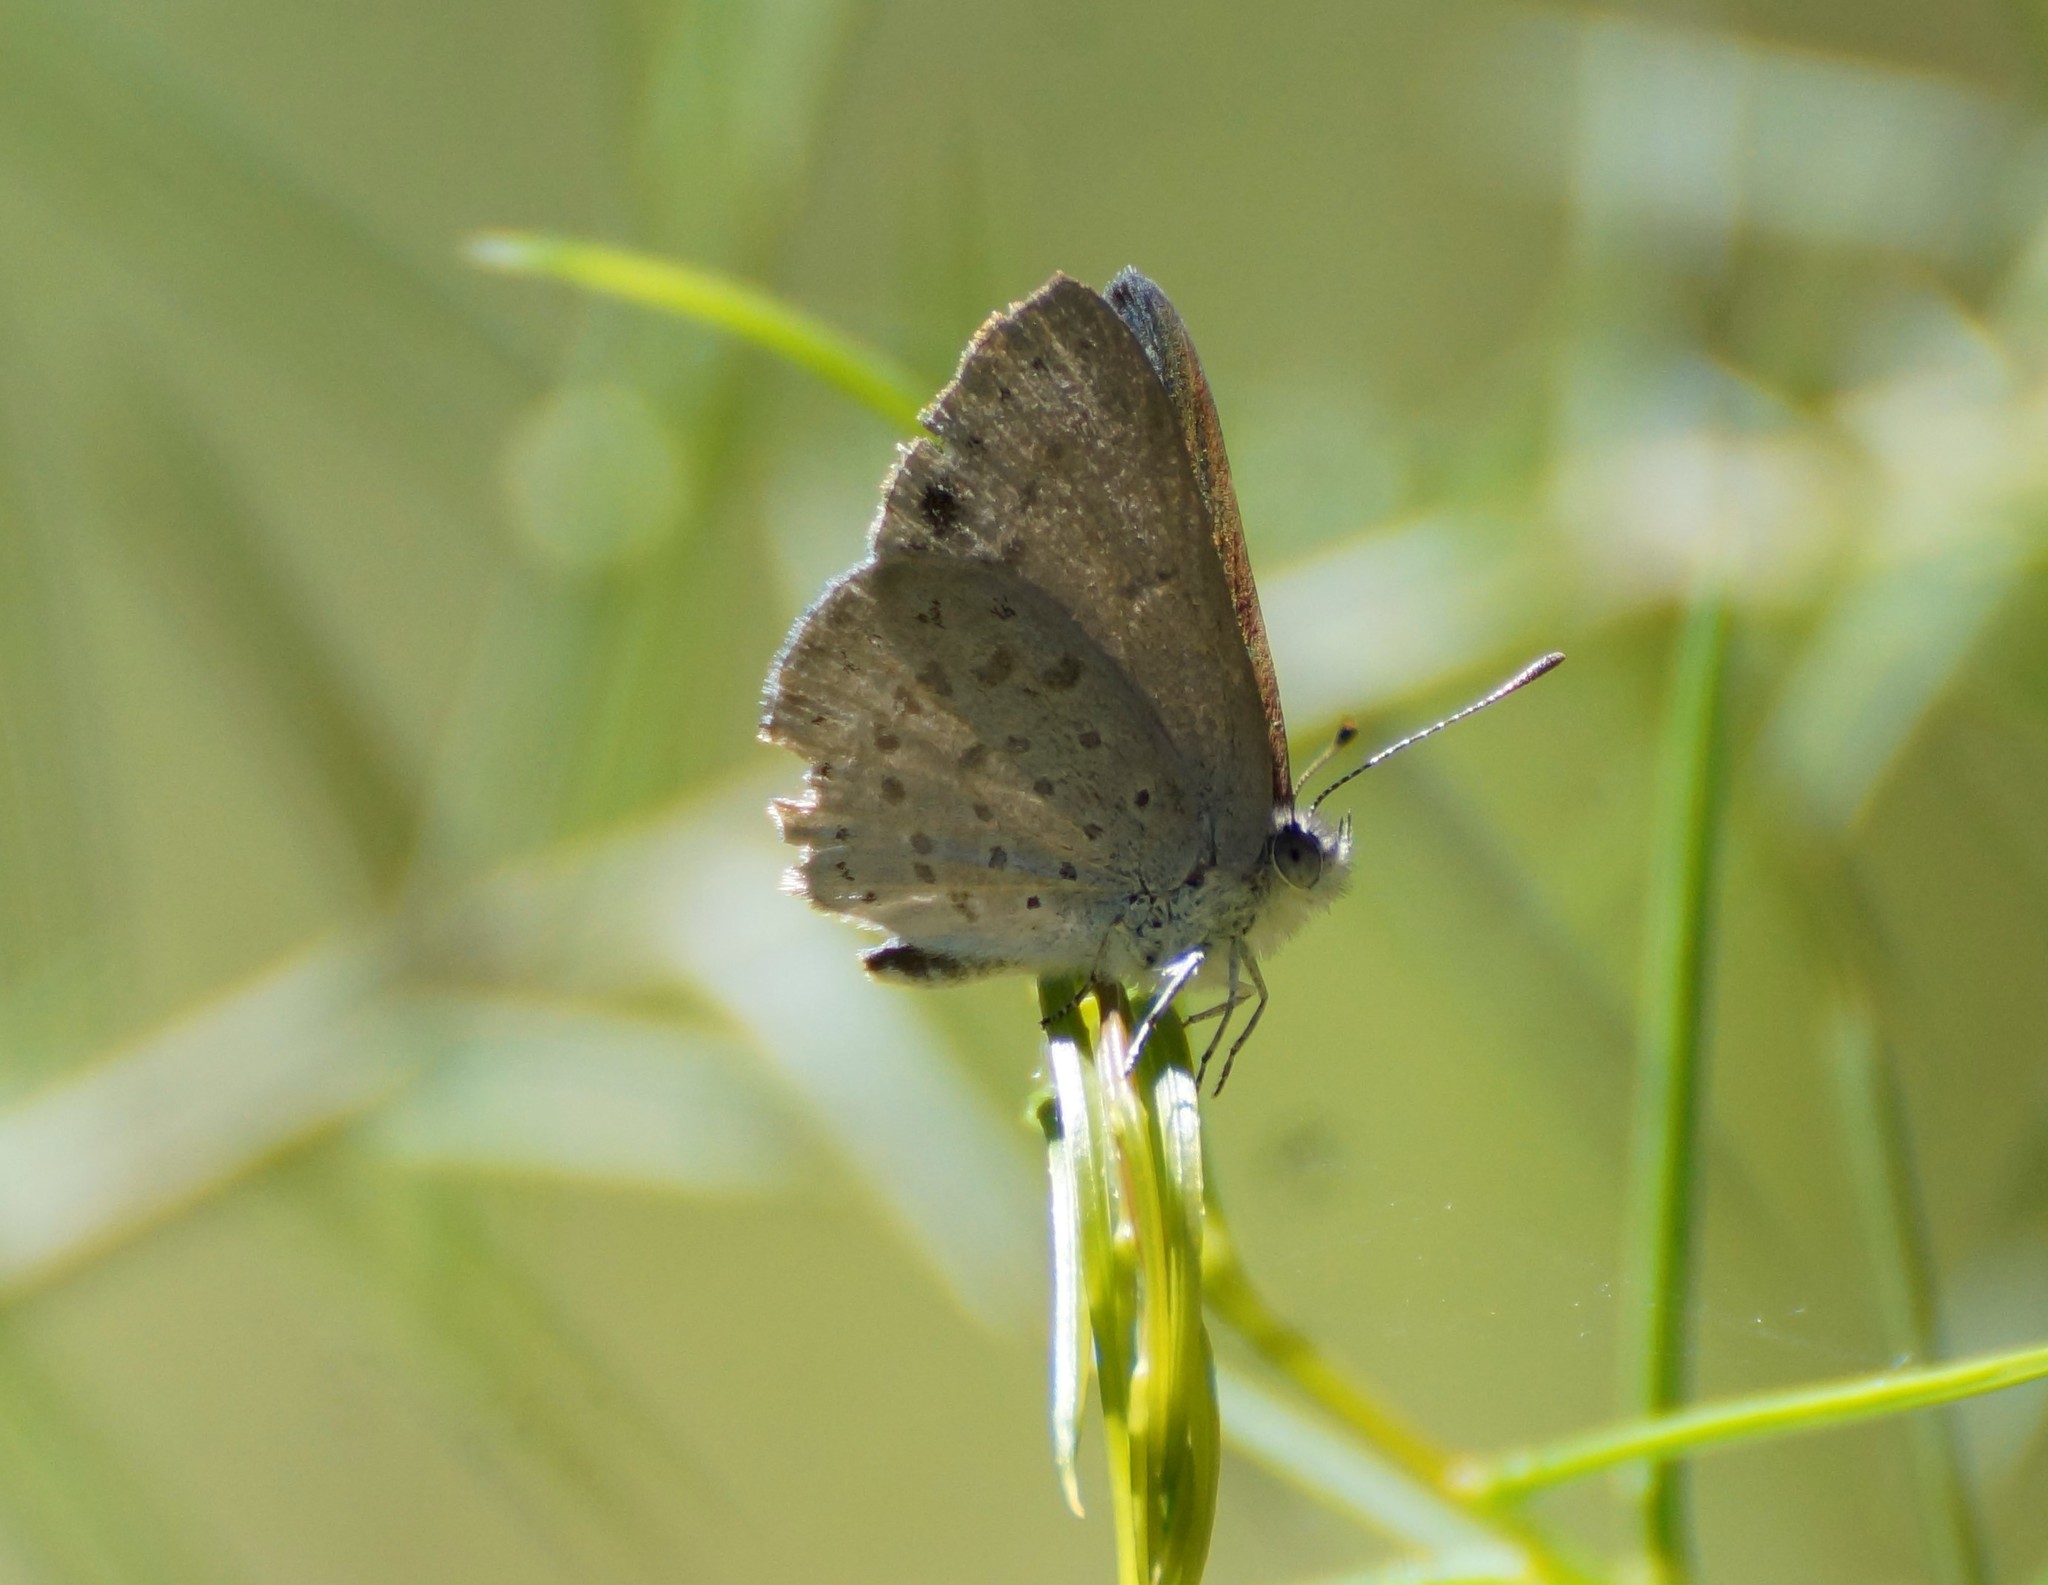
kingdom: Animalia
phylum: Arthropoda
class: Insecta
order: Lepidoptera
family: Lycaenidae
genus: Candalides
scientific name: Candalides
